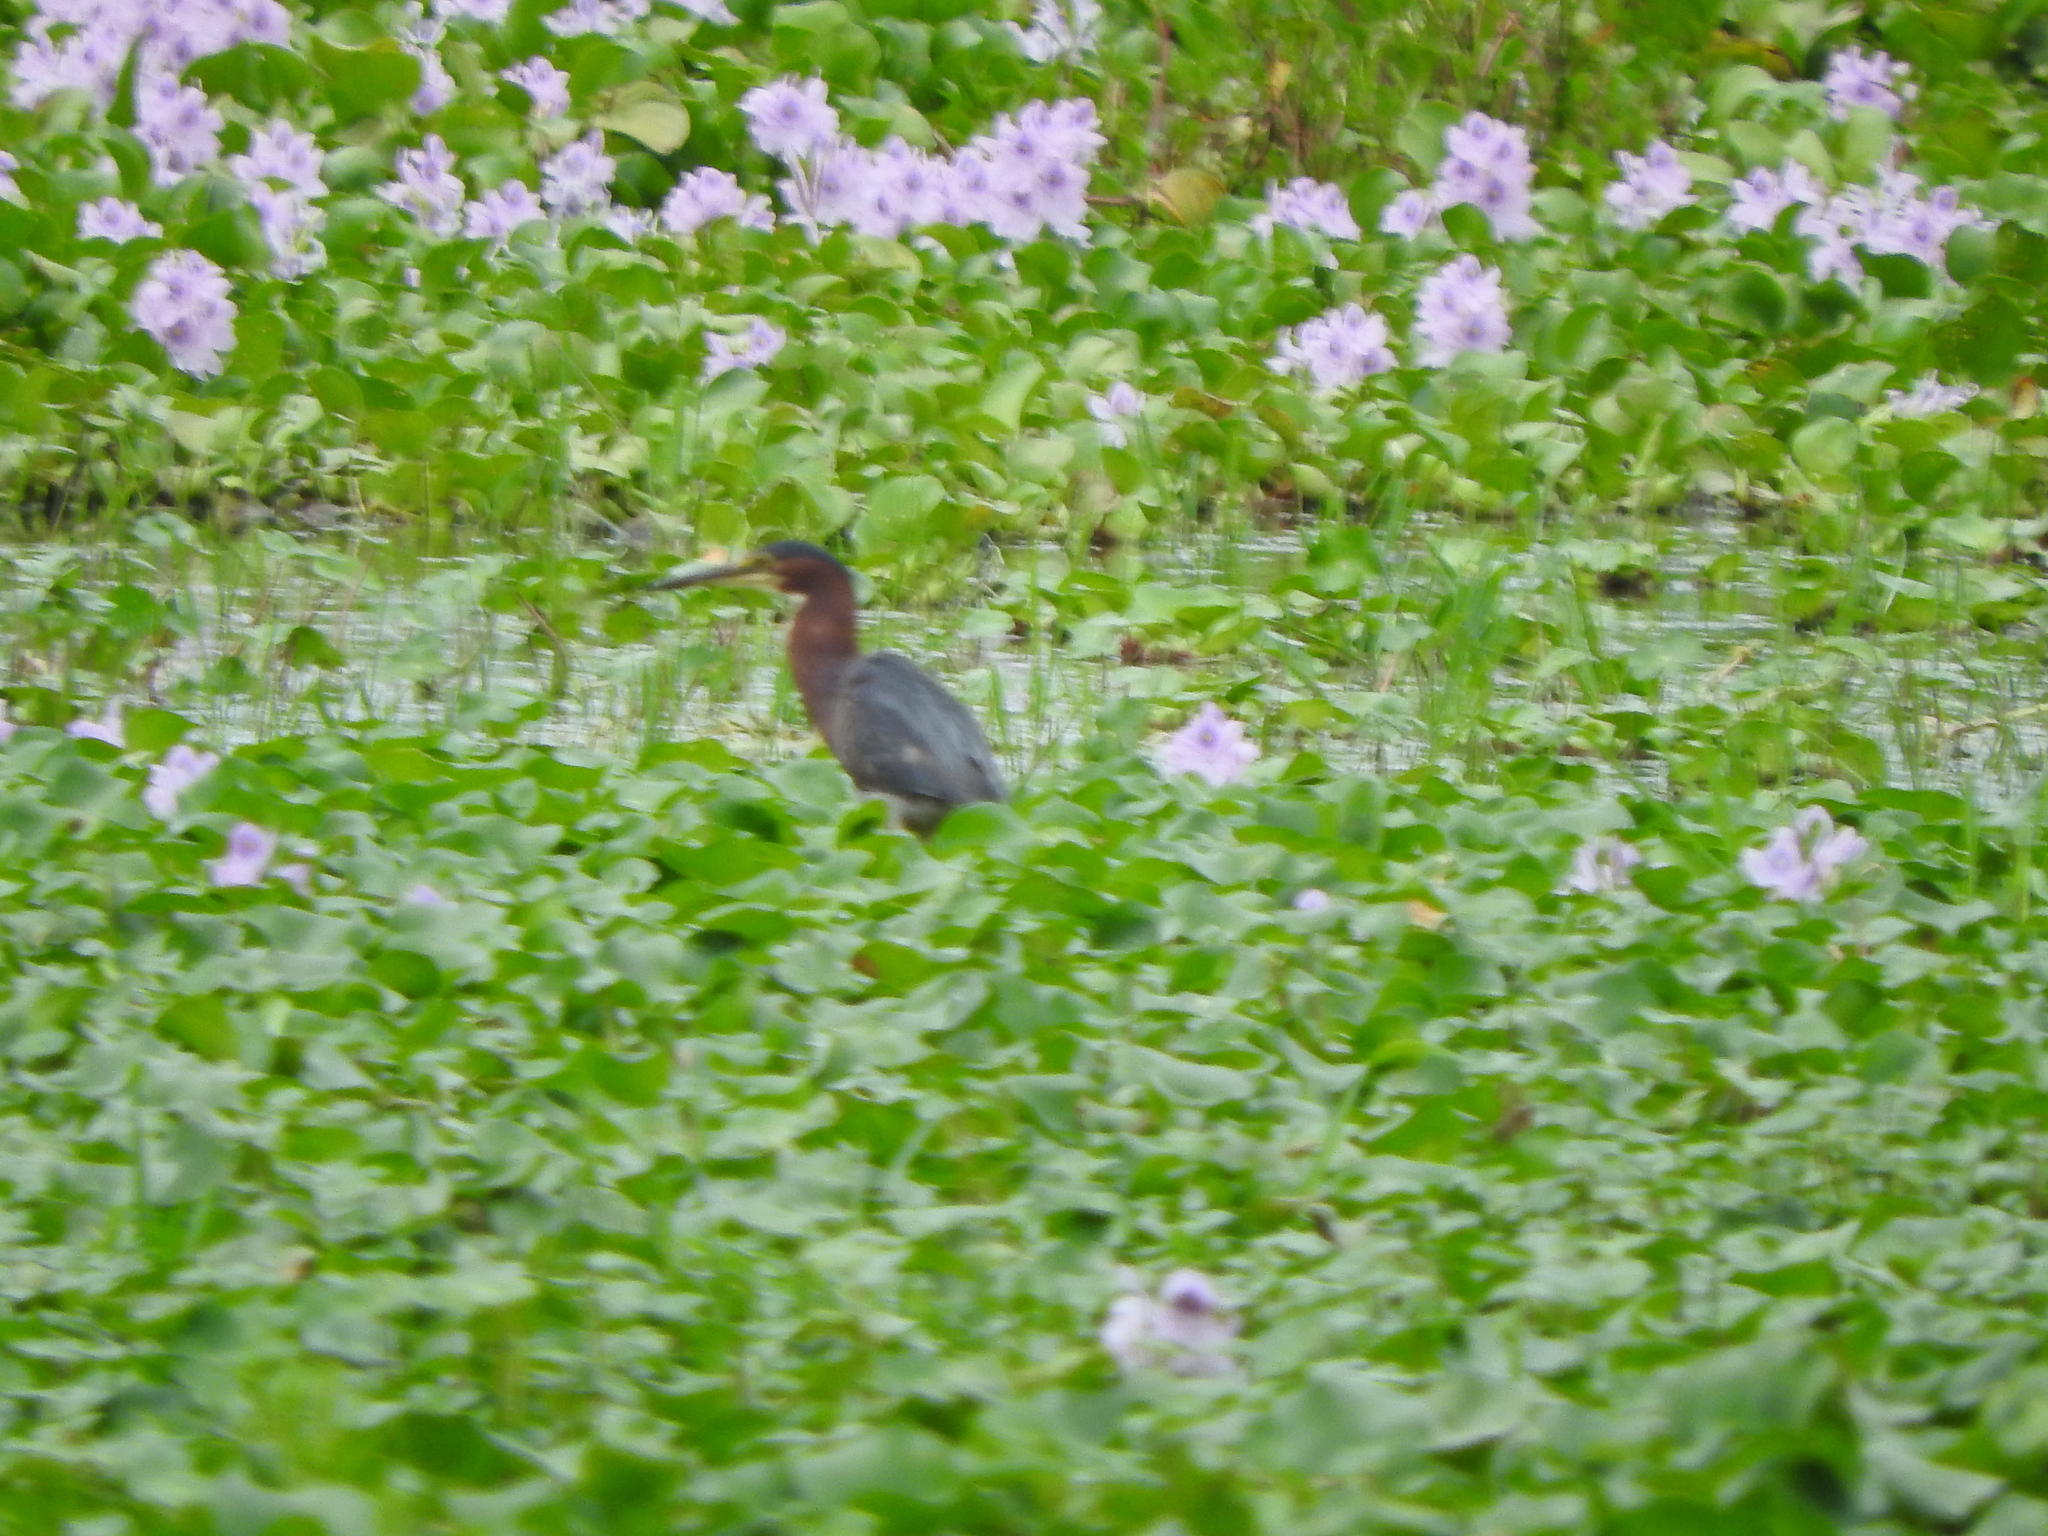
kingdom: Animalia
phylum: Chordata
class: Aves
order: Pelecaniformes
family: Ardeidae
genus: Butorides
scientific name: Butorides virescens
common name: Green heron
